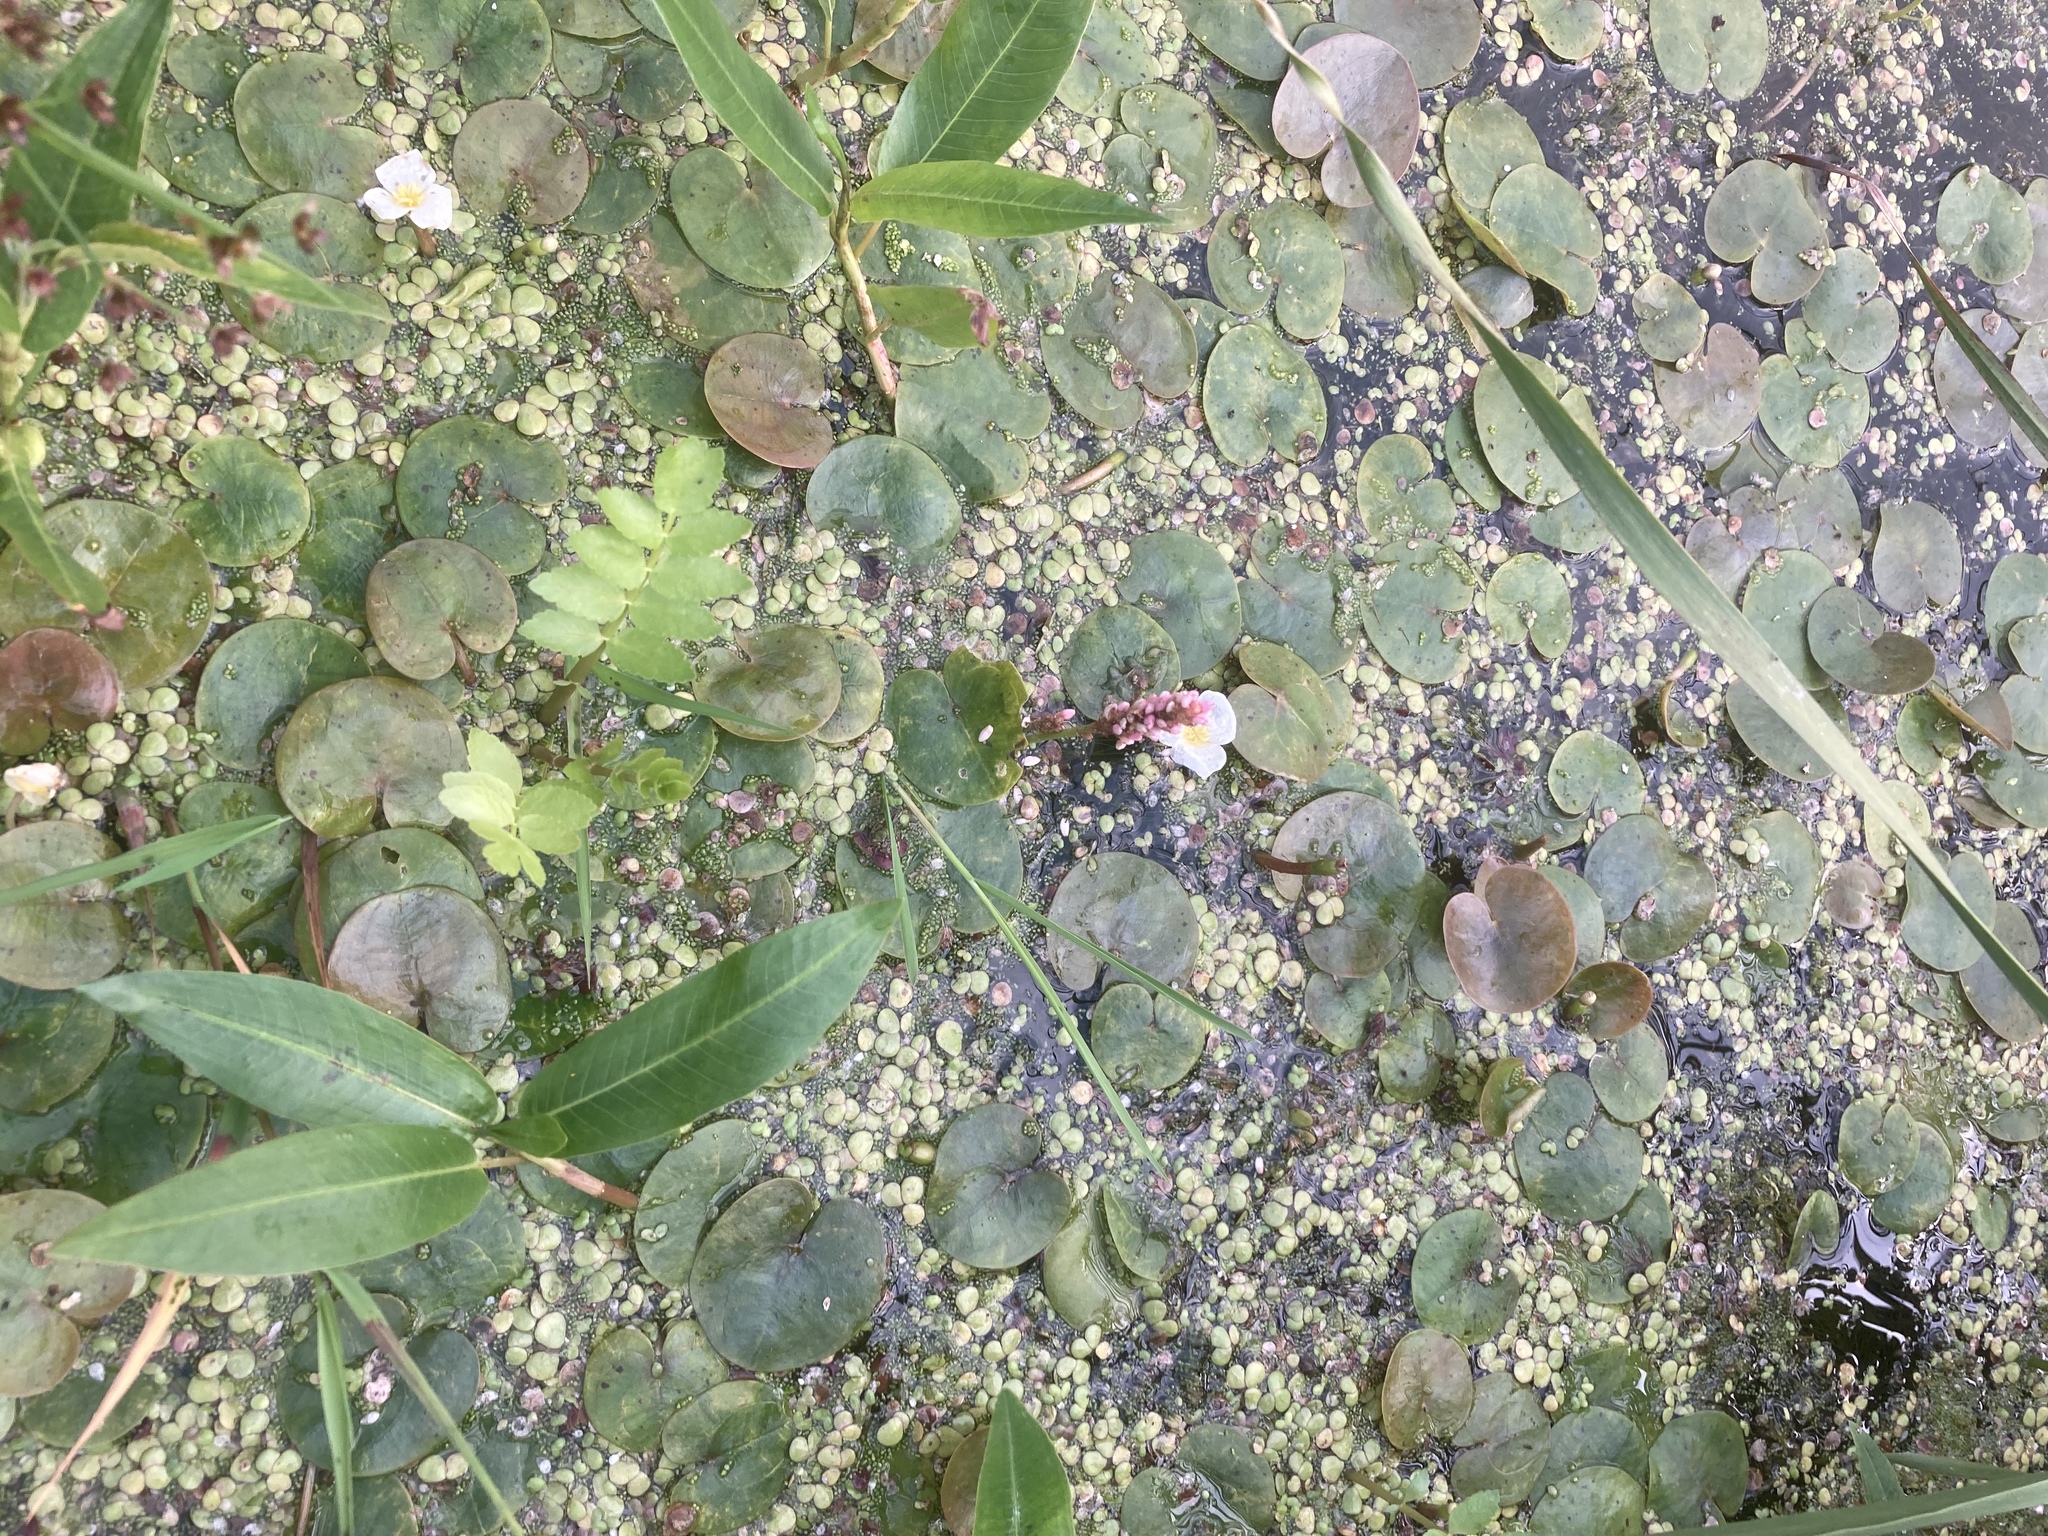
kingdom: Plantae
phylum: Tracheophyta
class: Liliopsida
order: Alismatales
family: Hydrocharitaceae
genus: Hydrocharis
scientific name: Hydrocharis morsus-ranae
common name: Frogbit
